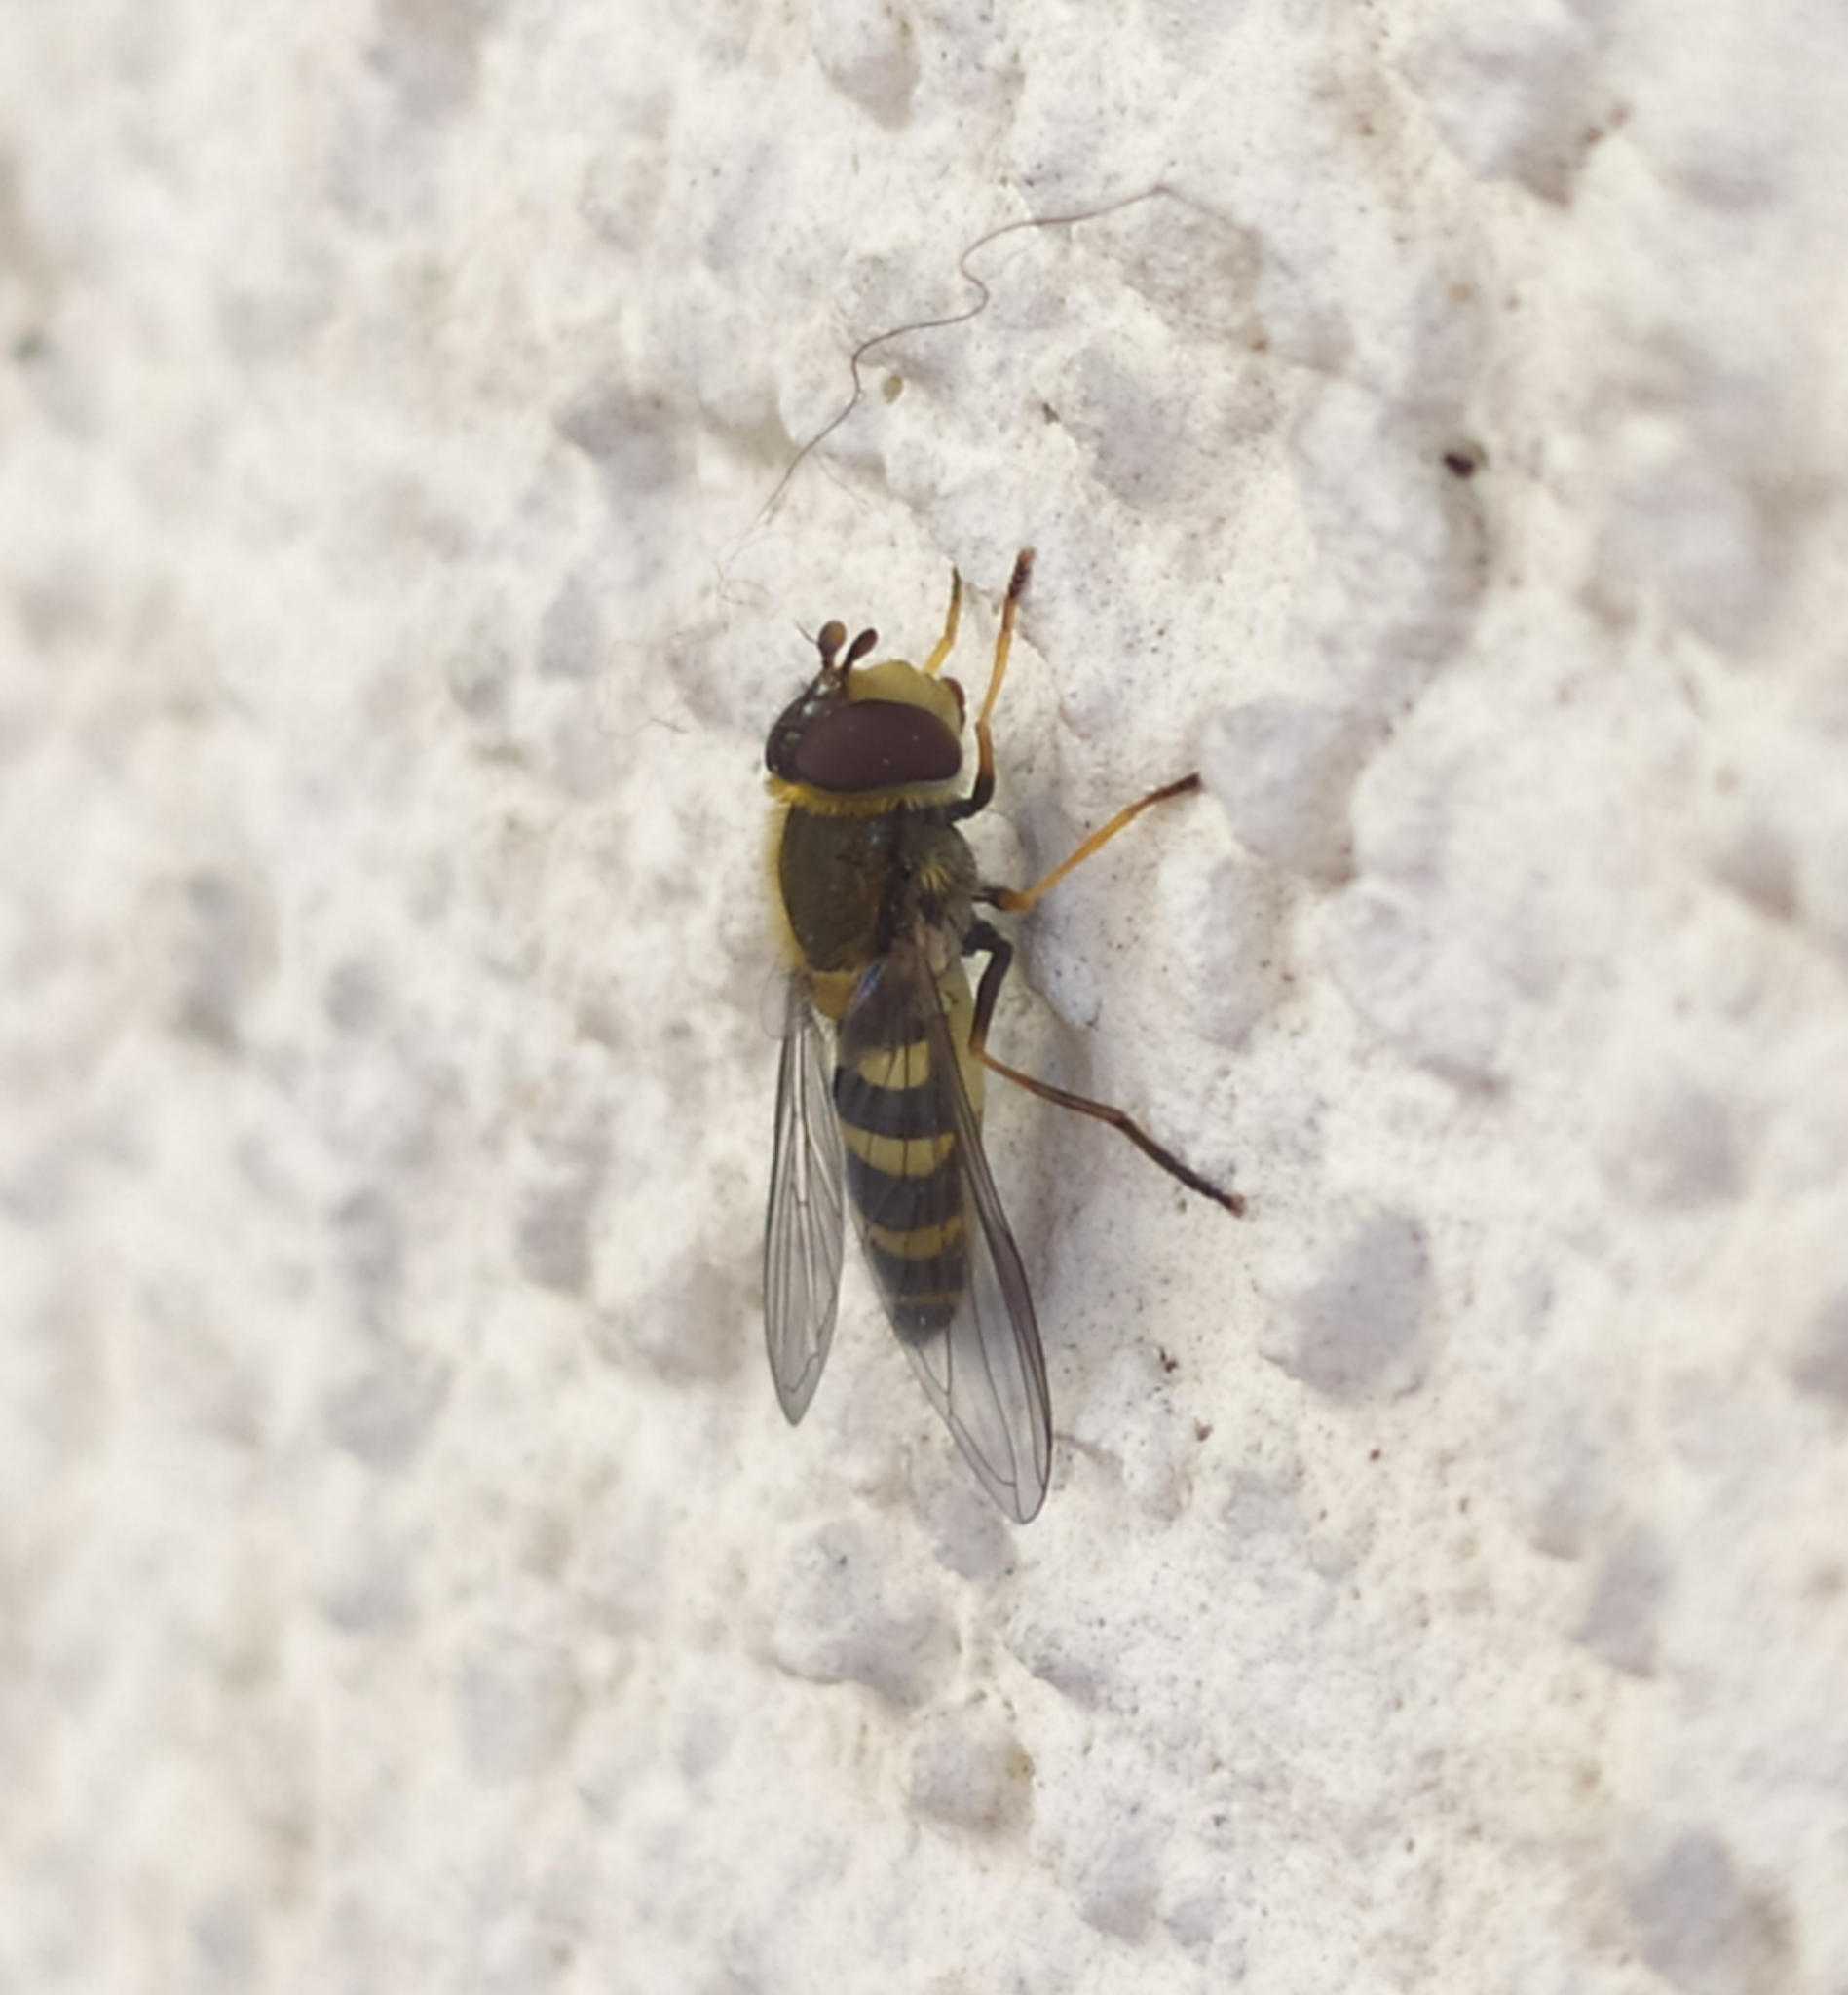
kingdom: Animalia
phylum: Arthropoda
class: Insecta
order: Diptera
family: Syrphidae
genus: Syrphus
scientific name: Syrphus vitripennis
